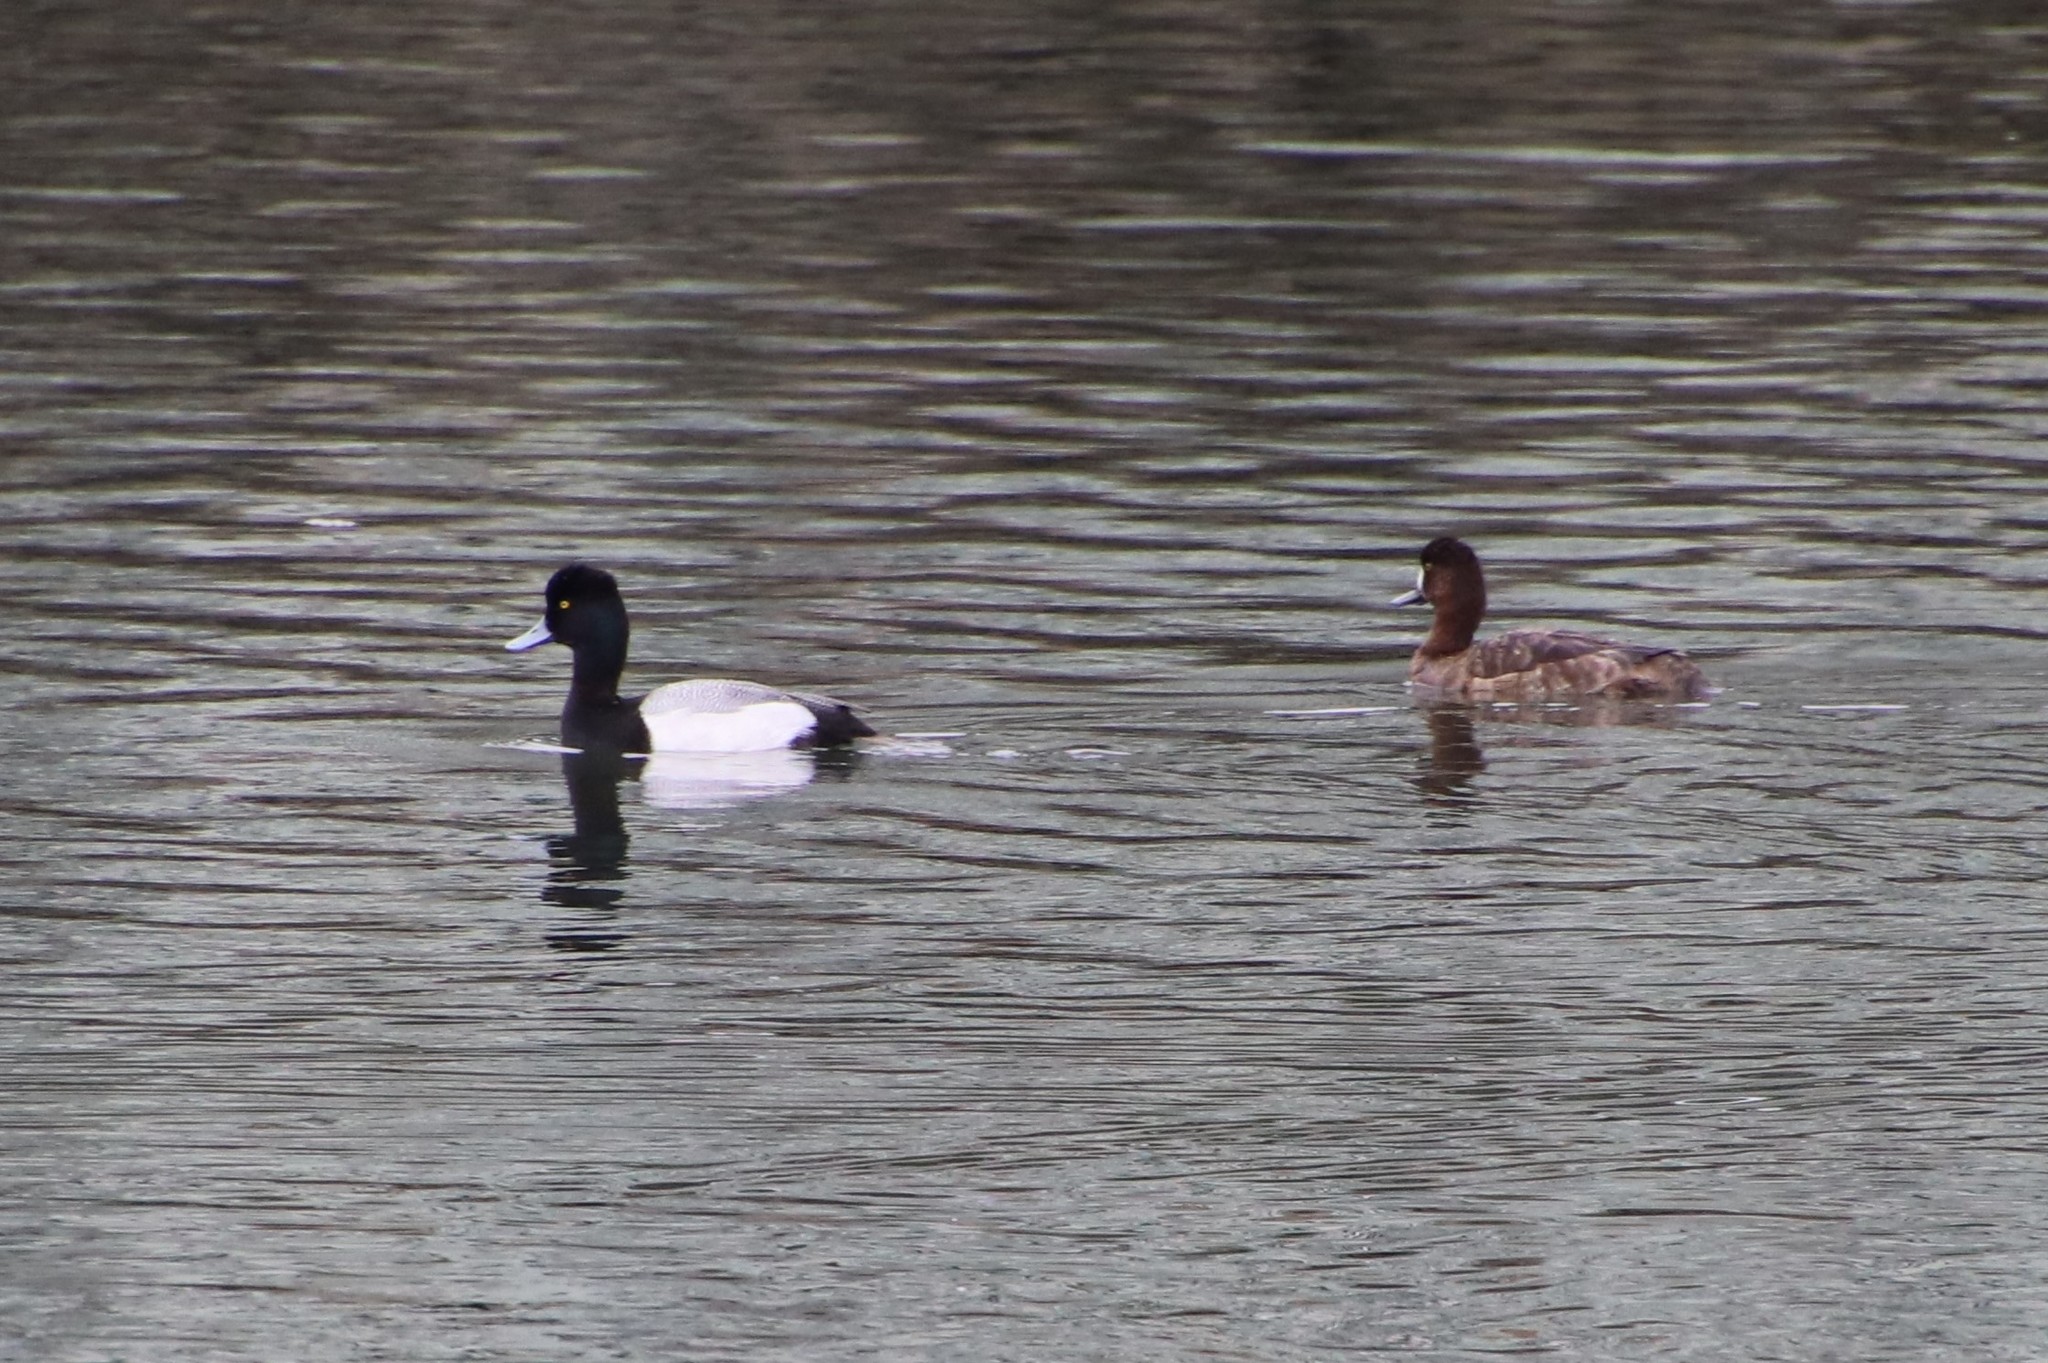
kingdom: Animalia
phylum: Chordata
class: Aves
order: Anseriformes
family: Anatidae
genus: Aythya
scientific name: Aythya affinis
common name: Lesser scaup
